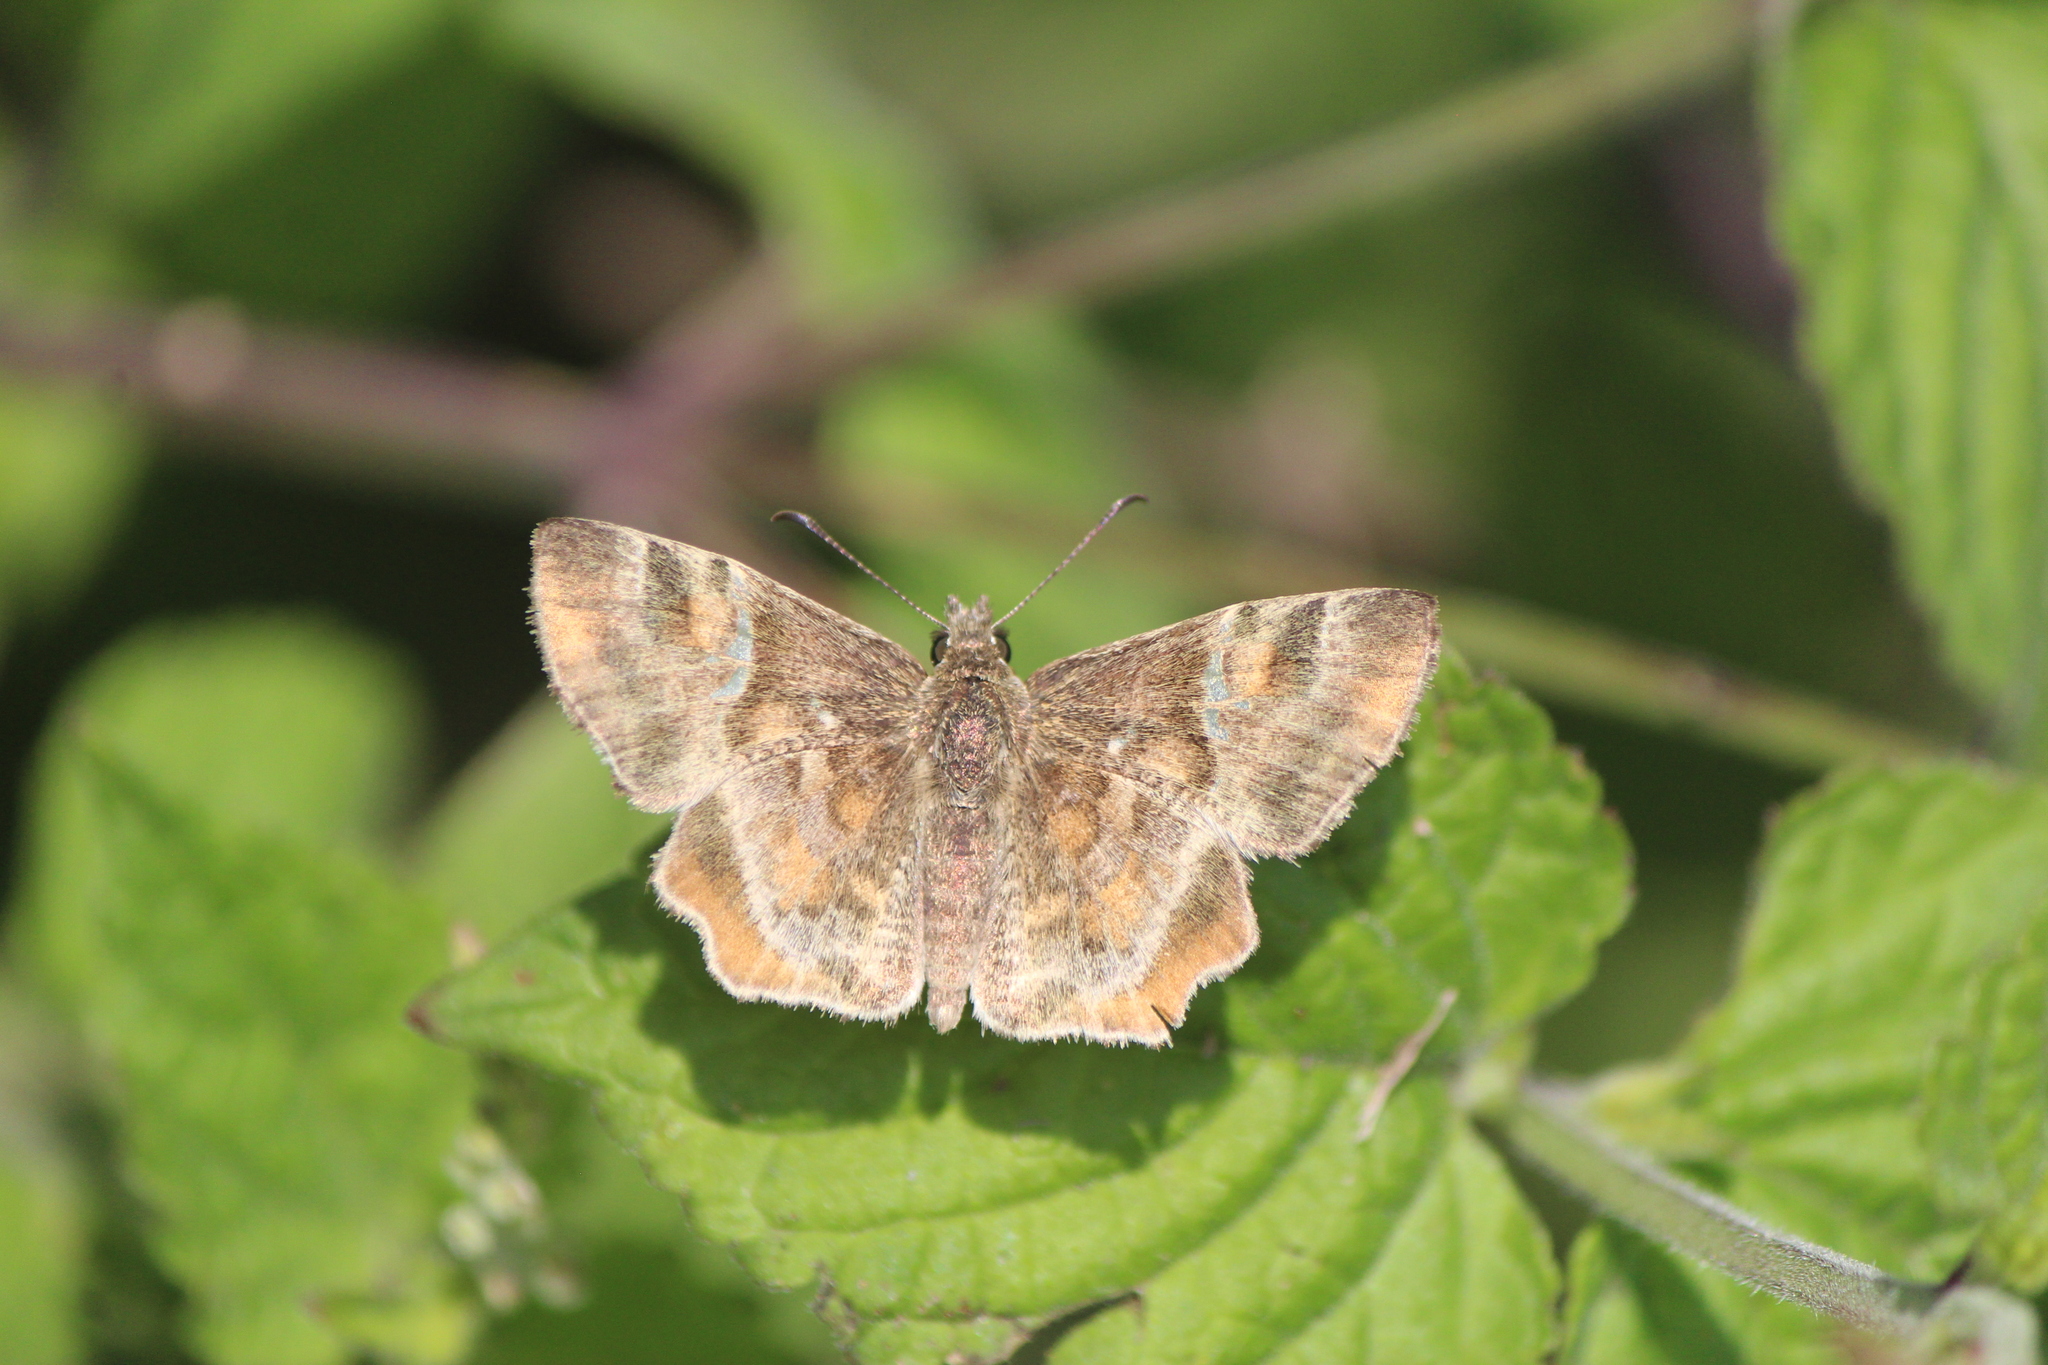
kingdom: Animalia
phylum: Arthropoda
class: Insecta
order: Lepidoptera
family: Hesperiidae
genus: Systasea
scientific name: Systasea pulverulenta
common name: Texas powdered skipper
